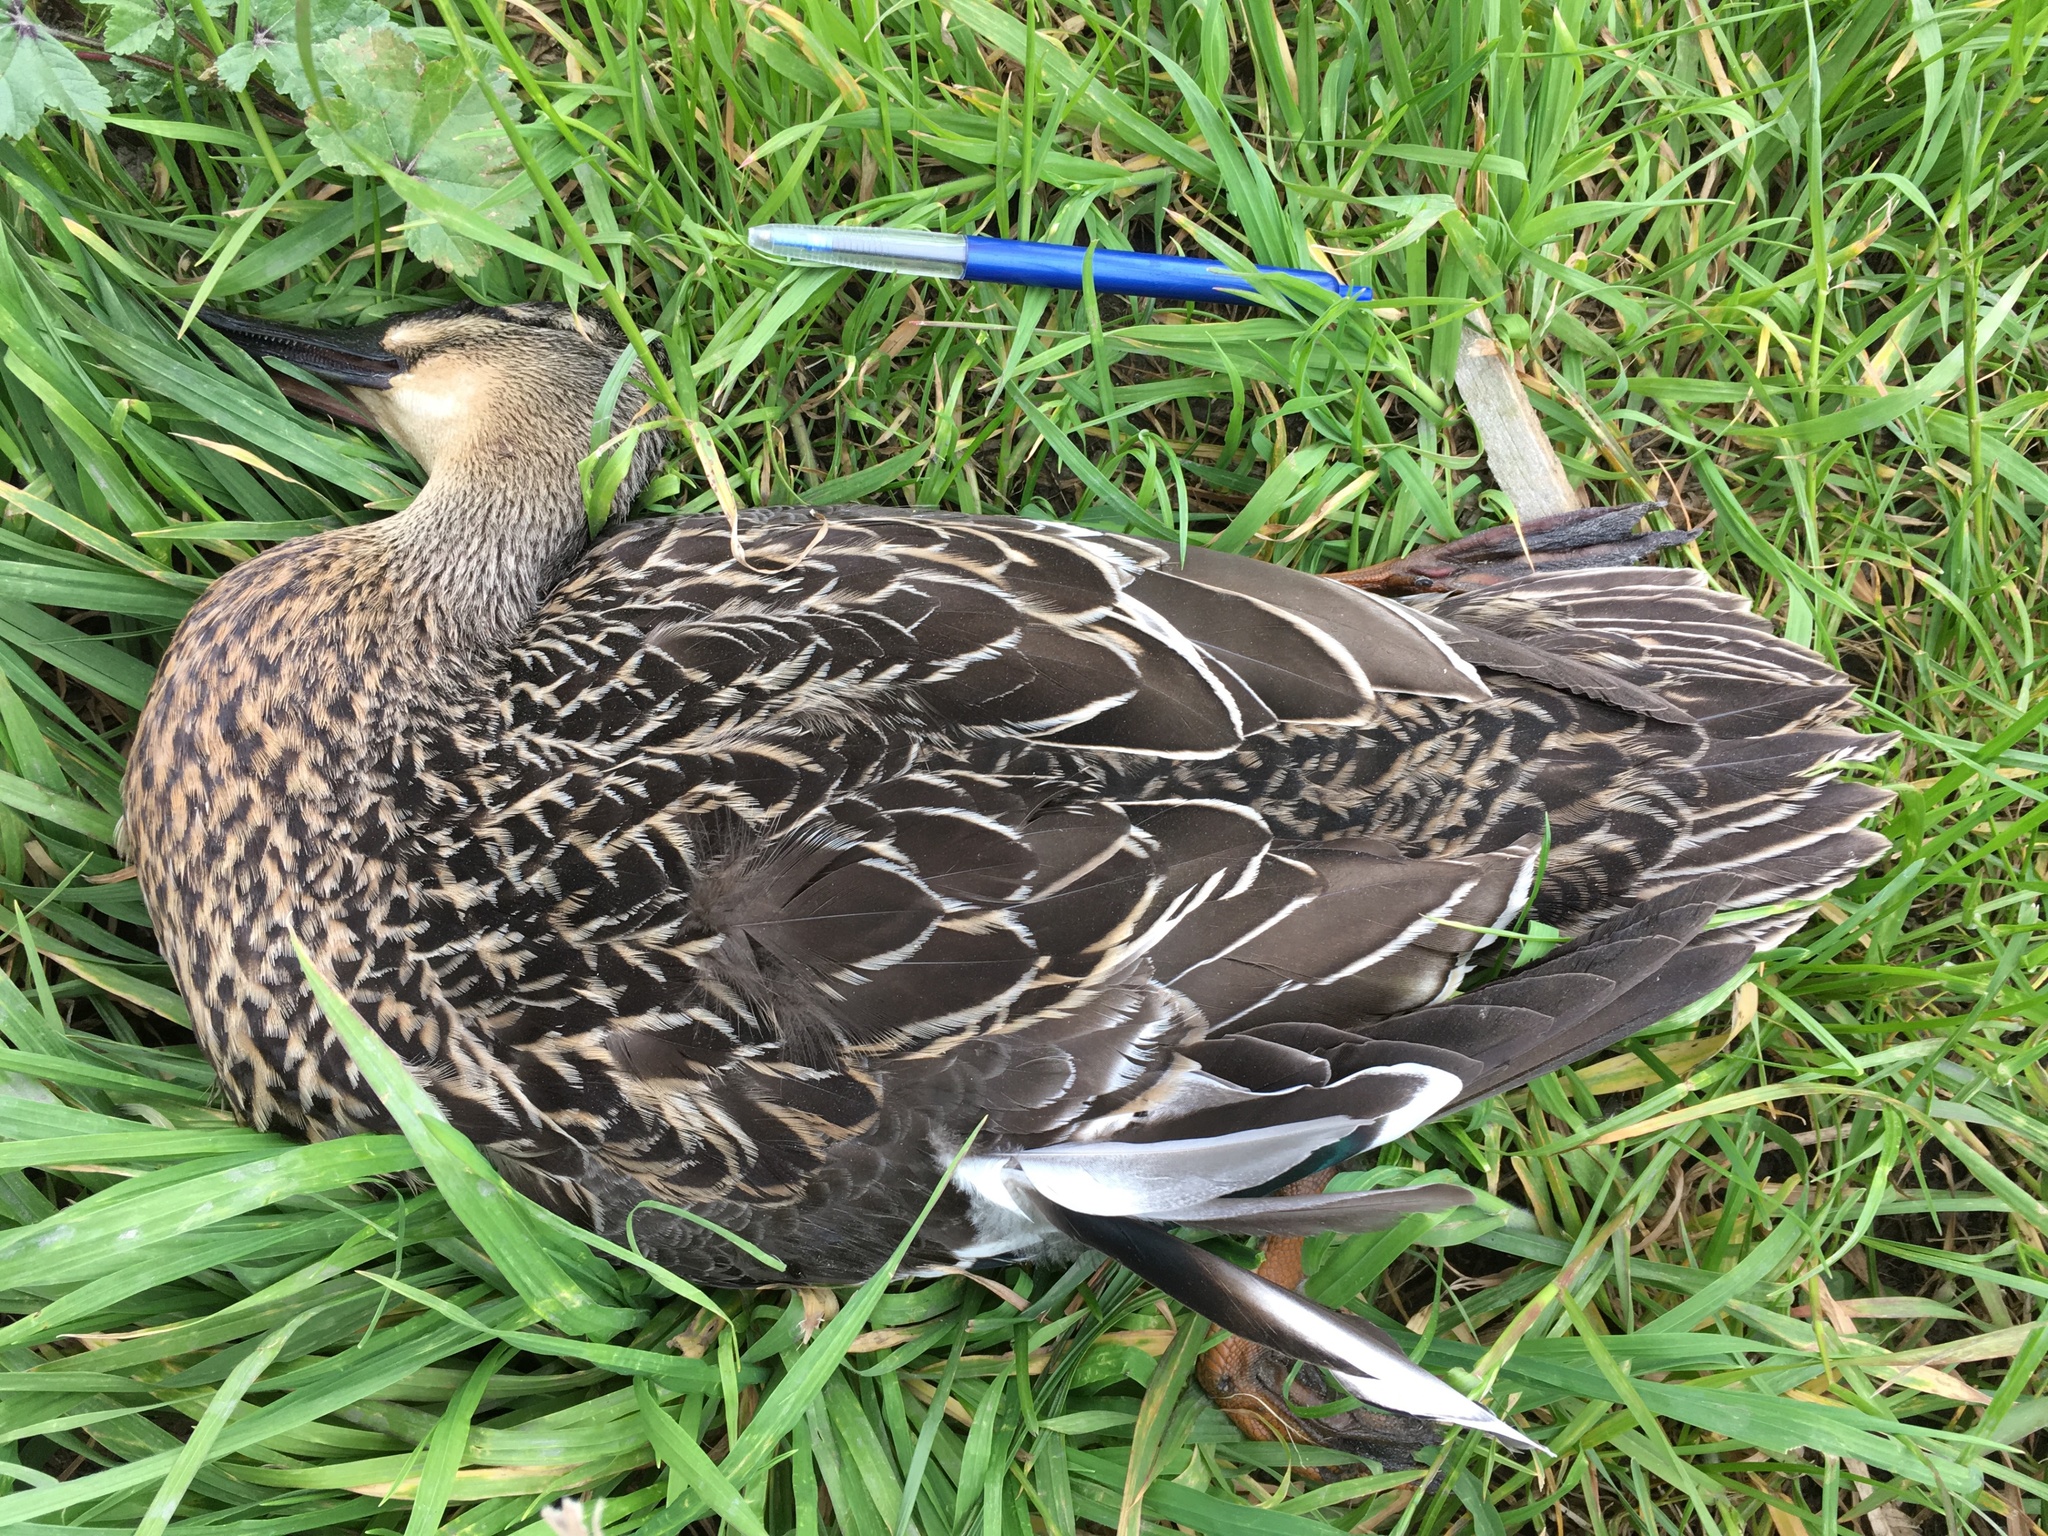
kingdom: Animalia
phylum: Chordata
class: Aves
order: Anseriformes
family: Anatidae
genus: Anas
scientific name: Anas
